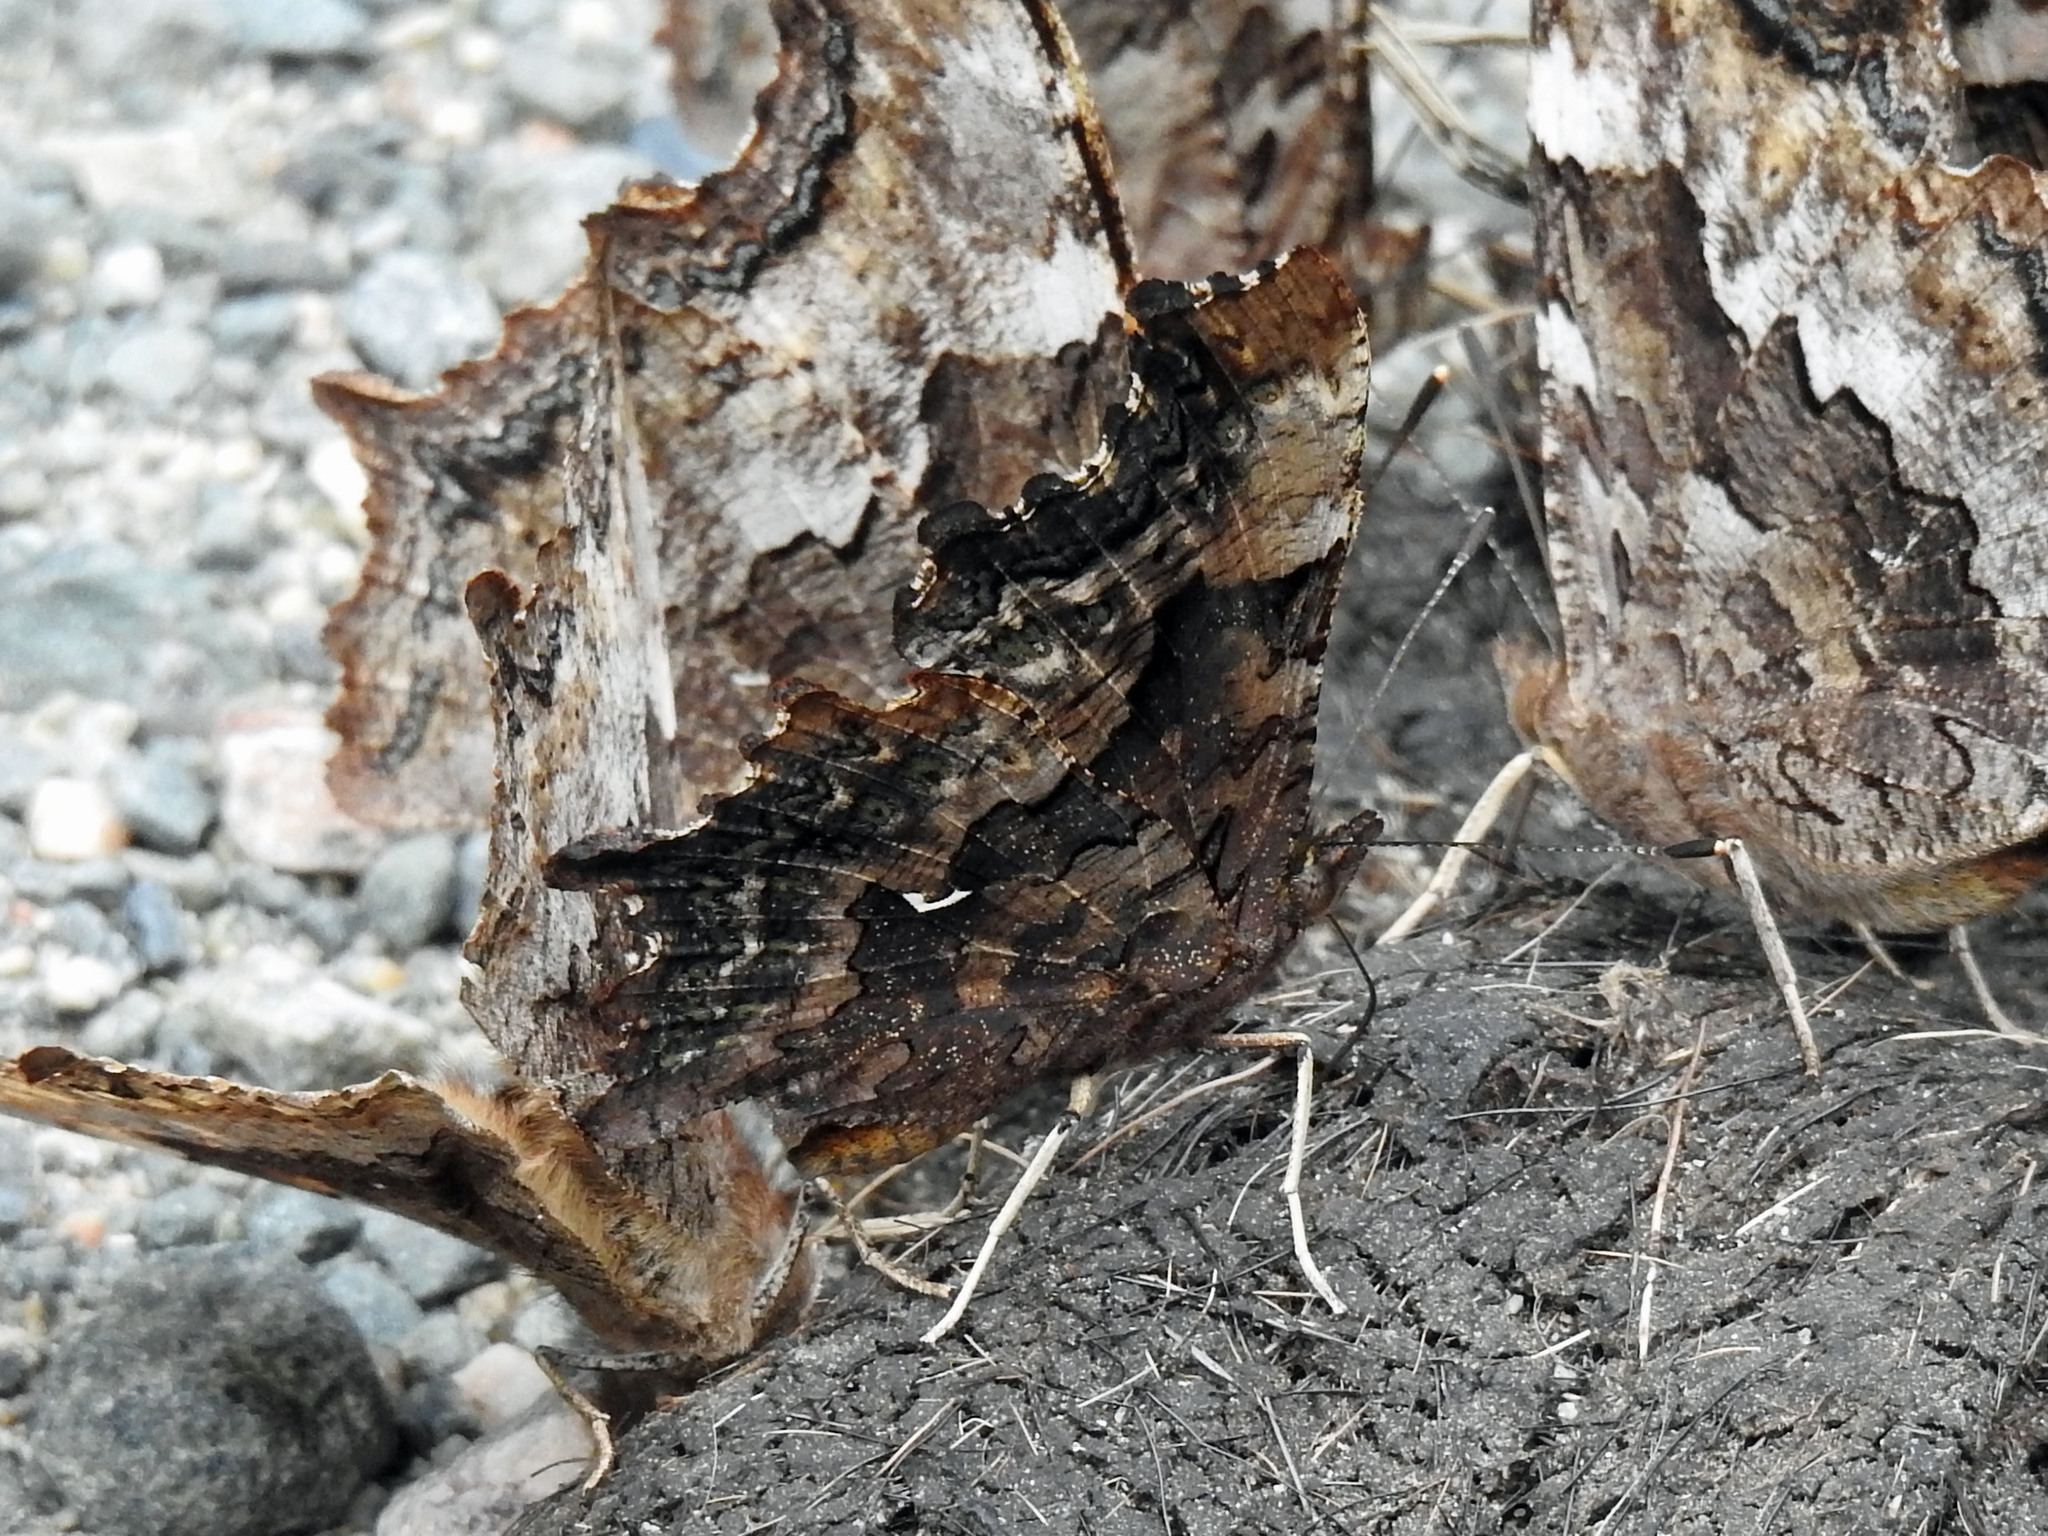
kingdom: Animalia
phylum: Arthropoda
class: Insecta
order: Lepidoptera
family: Nymphalidae
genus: Polygonia
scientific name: Polygonia faunus
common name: Green comma
